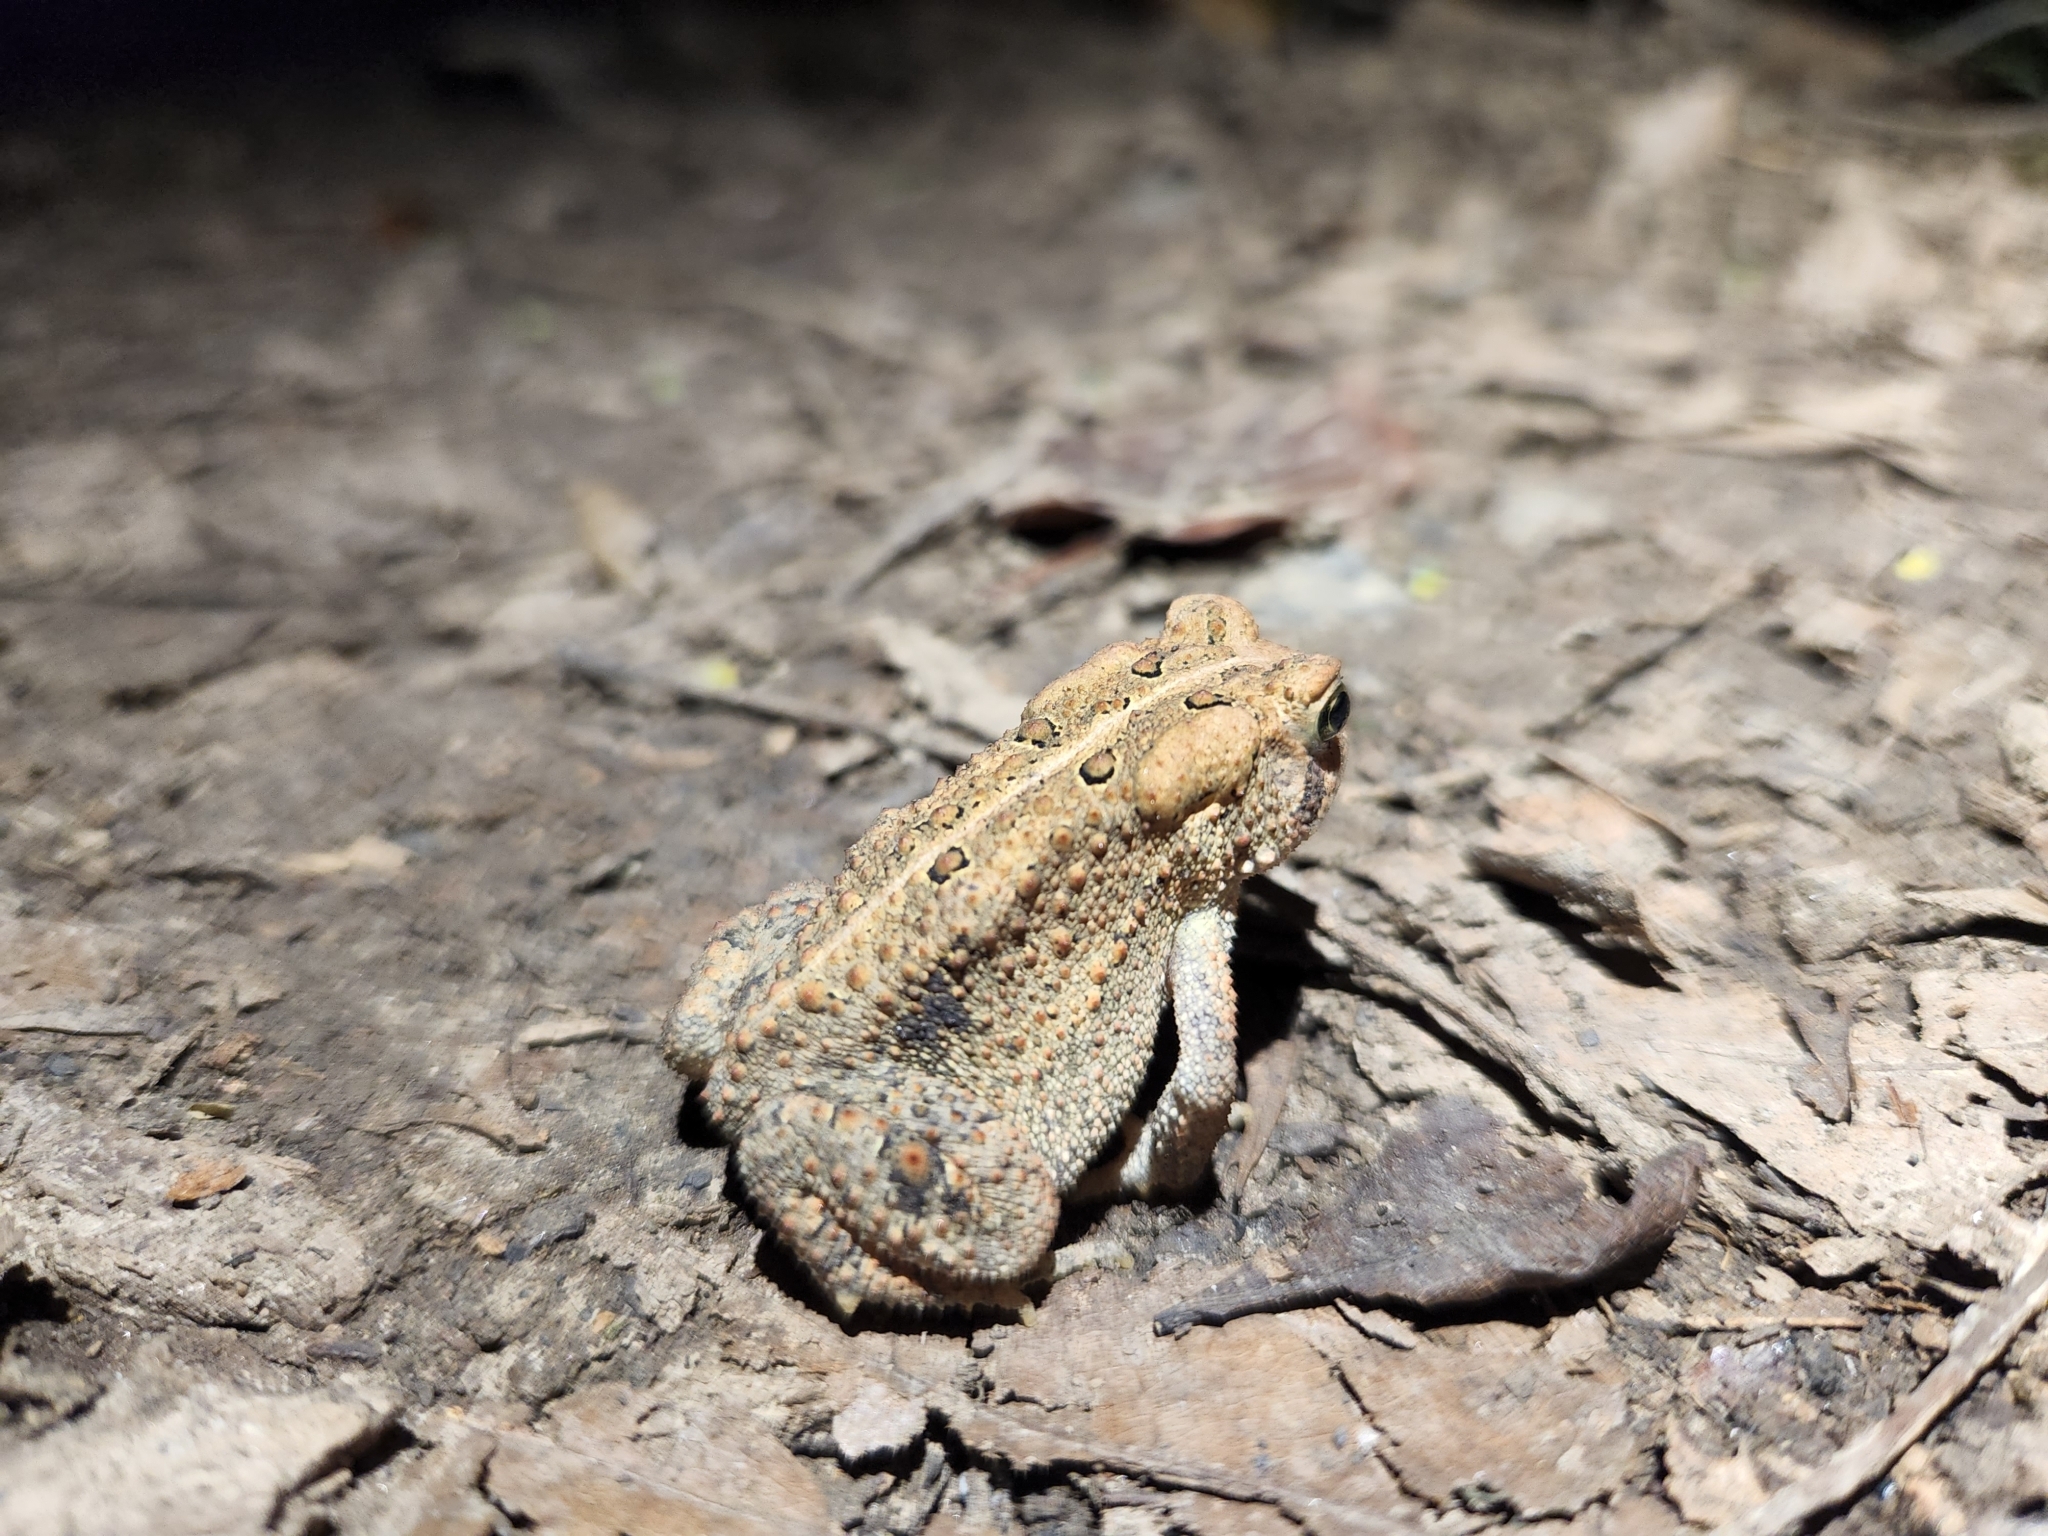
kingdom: Animalia
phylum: Chordata
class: Amphibia
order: Anura
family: Bufonidae
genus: Anaxyrus
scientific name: Anaxyrus americanus
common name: American toad
